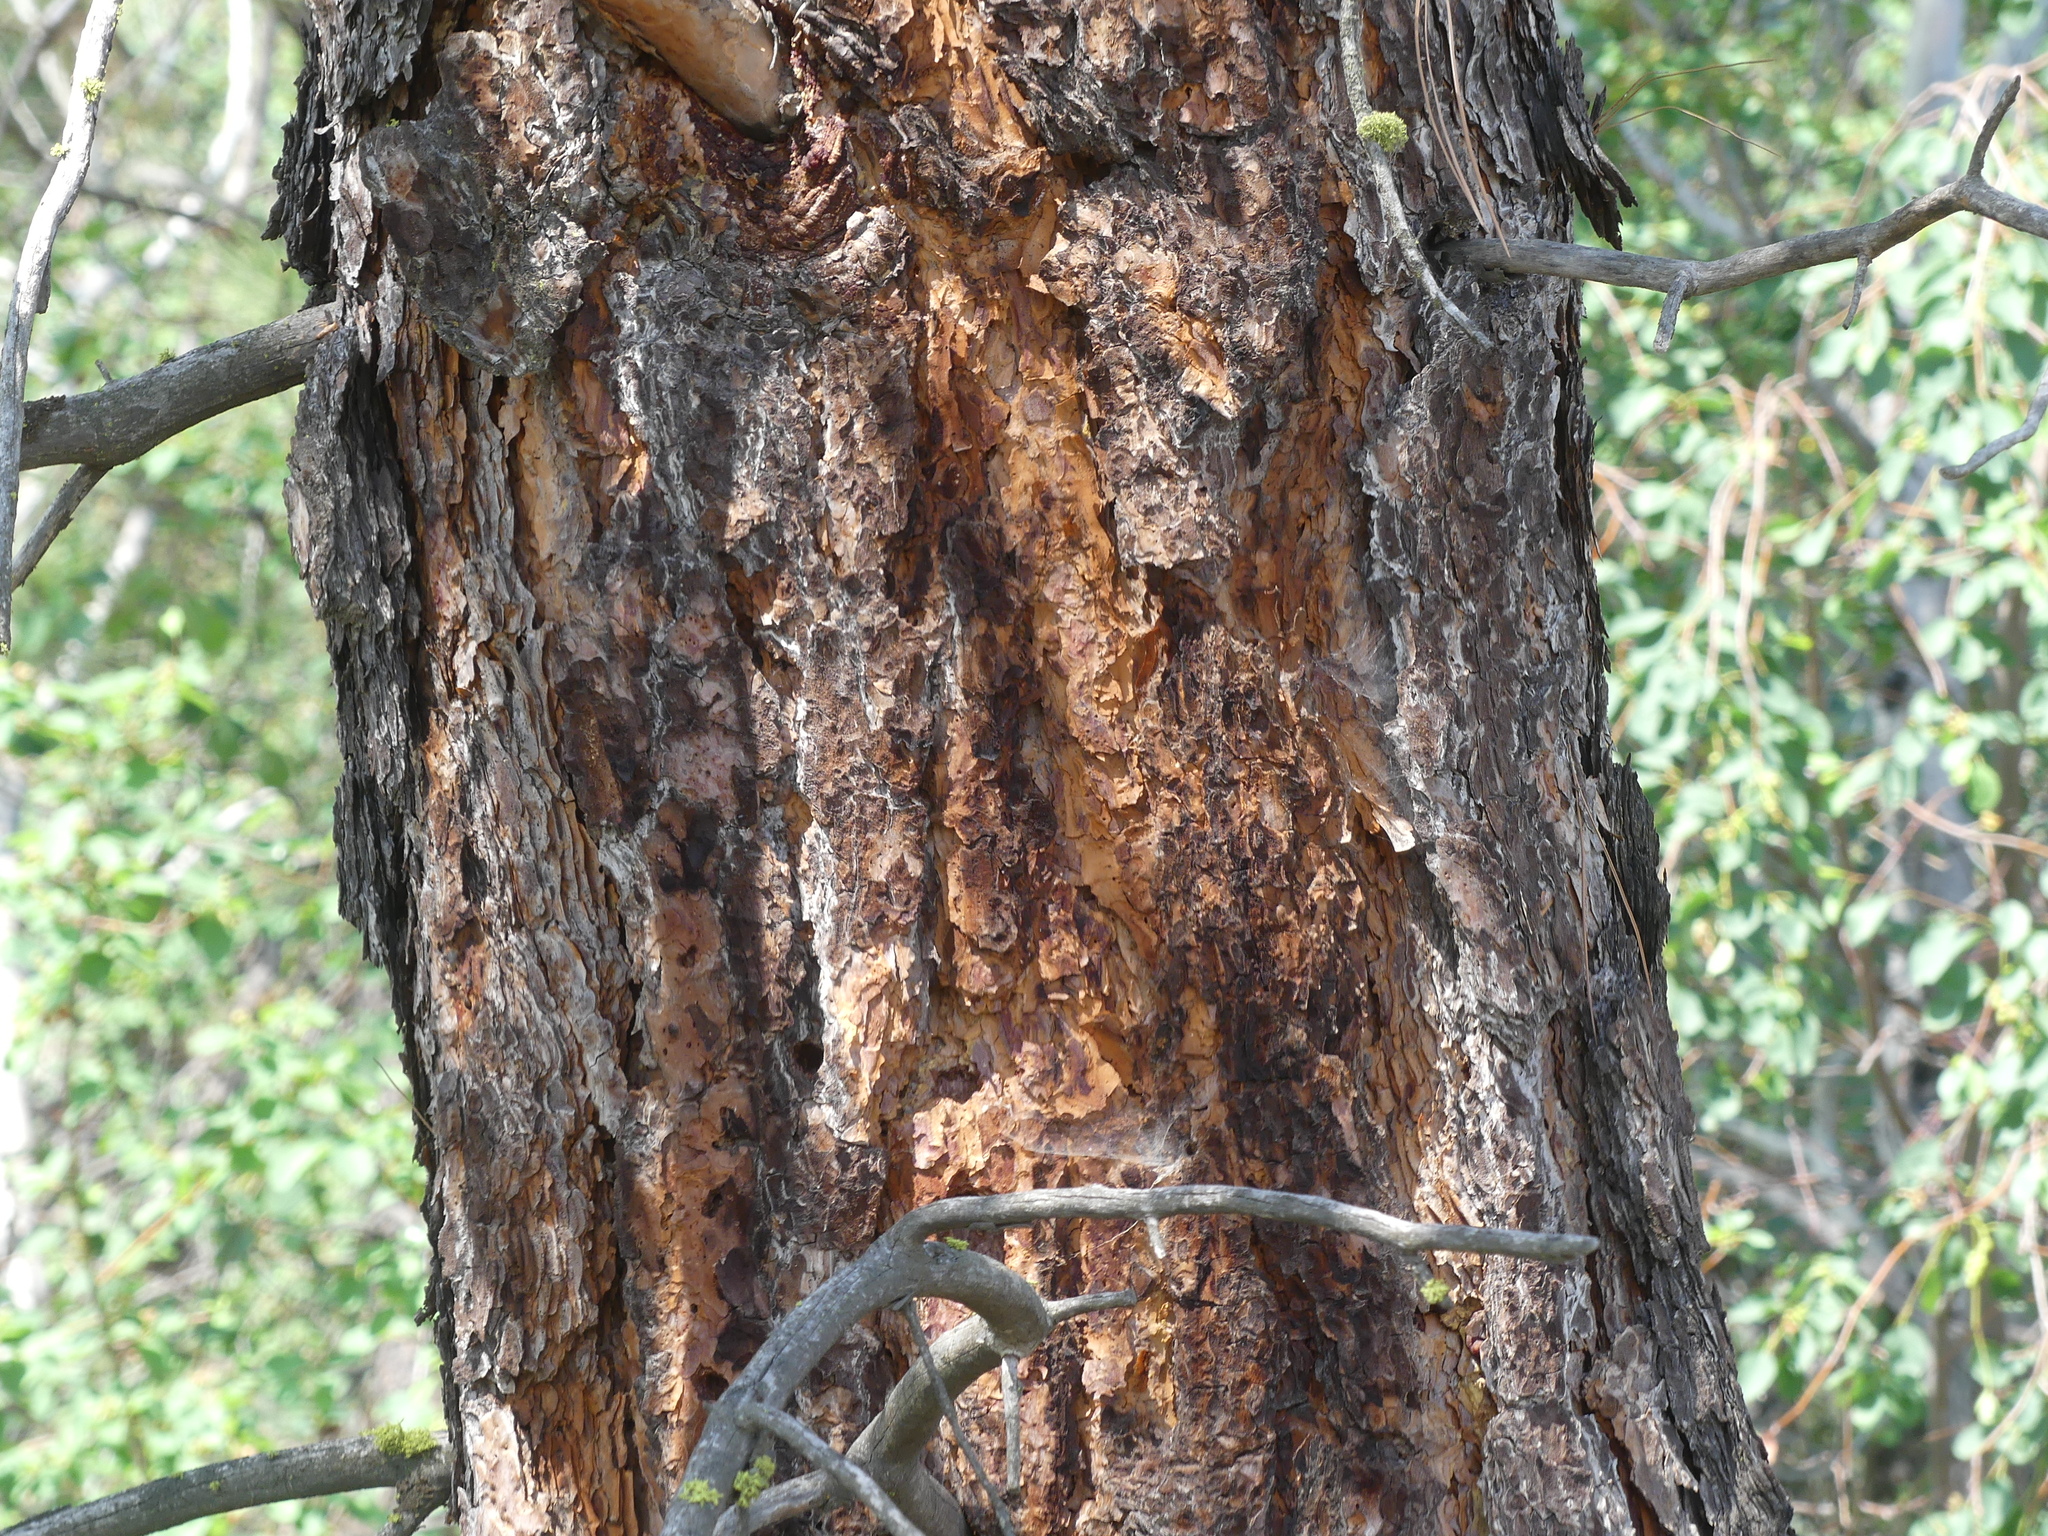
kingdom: Plantae
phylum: Tracheophyta
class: Pinopsida
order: Pinales
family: Pinaceae
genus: Pinus
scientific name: Pinus ponderosa
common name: Western yellow-pine
